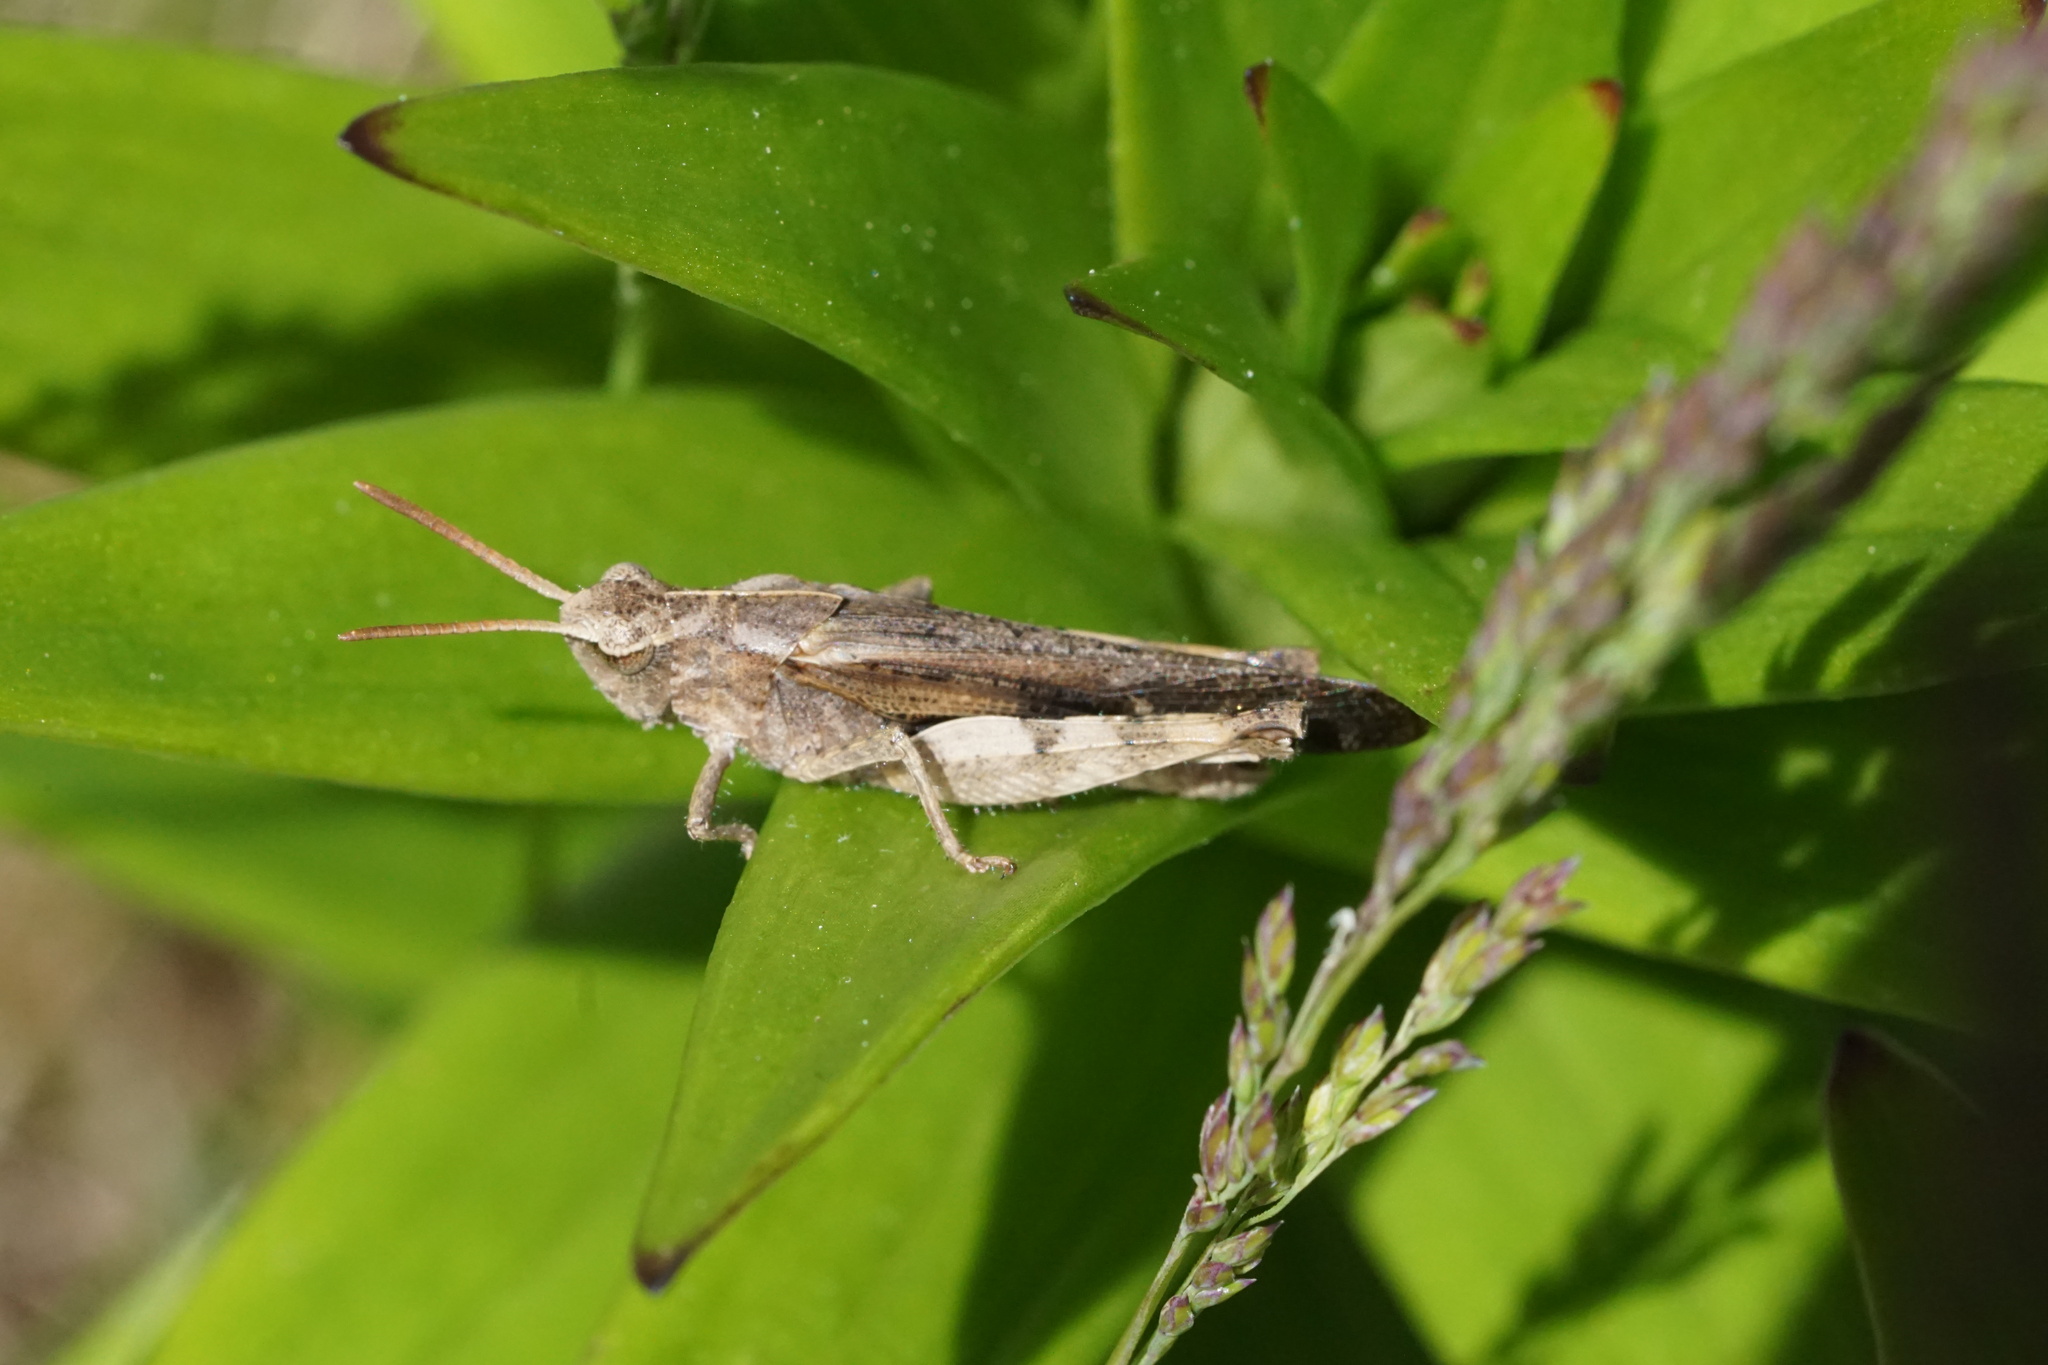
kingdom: Animalia
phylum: Arthropoda
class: Insecta
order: Orthoptera
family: Acrididae
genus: Chortophaga
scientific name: Chortophaga viridifasciata
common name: Green-striped grasshopper
